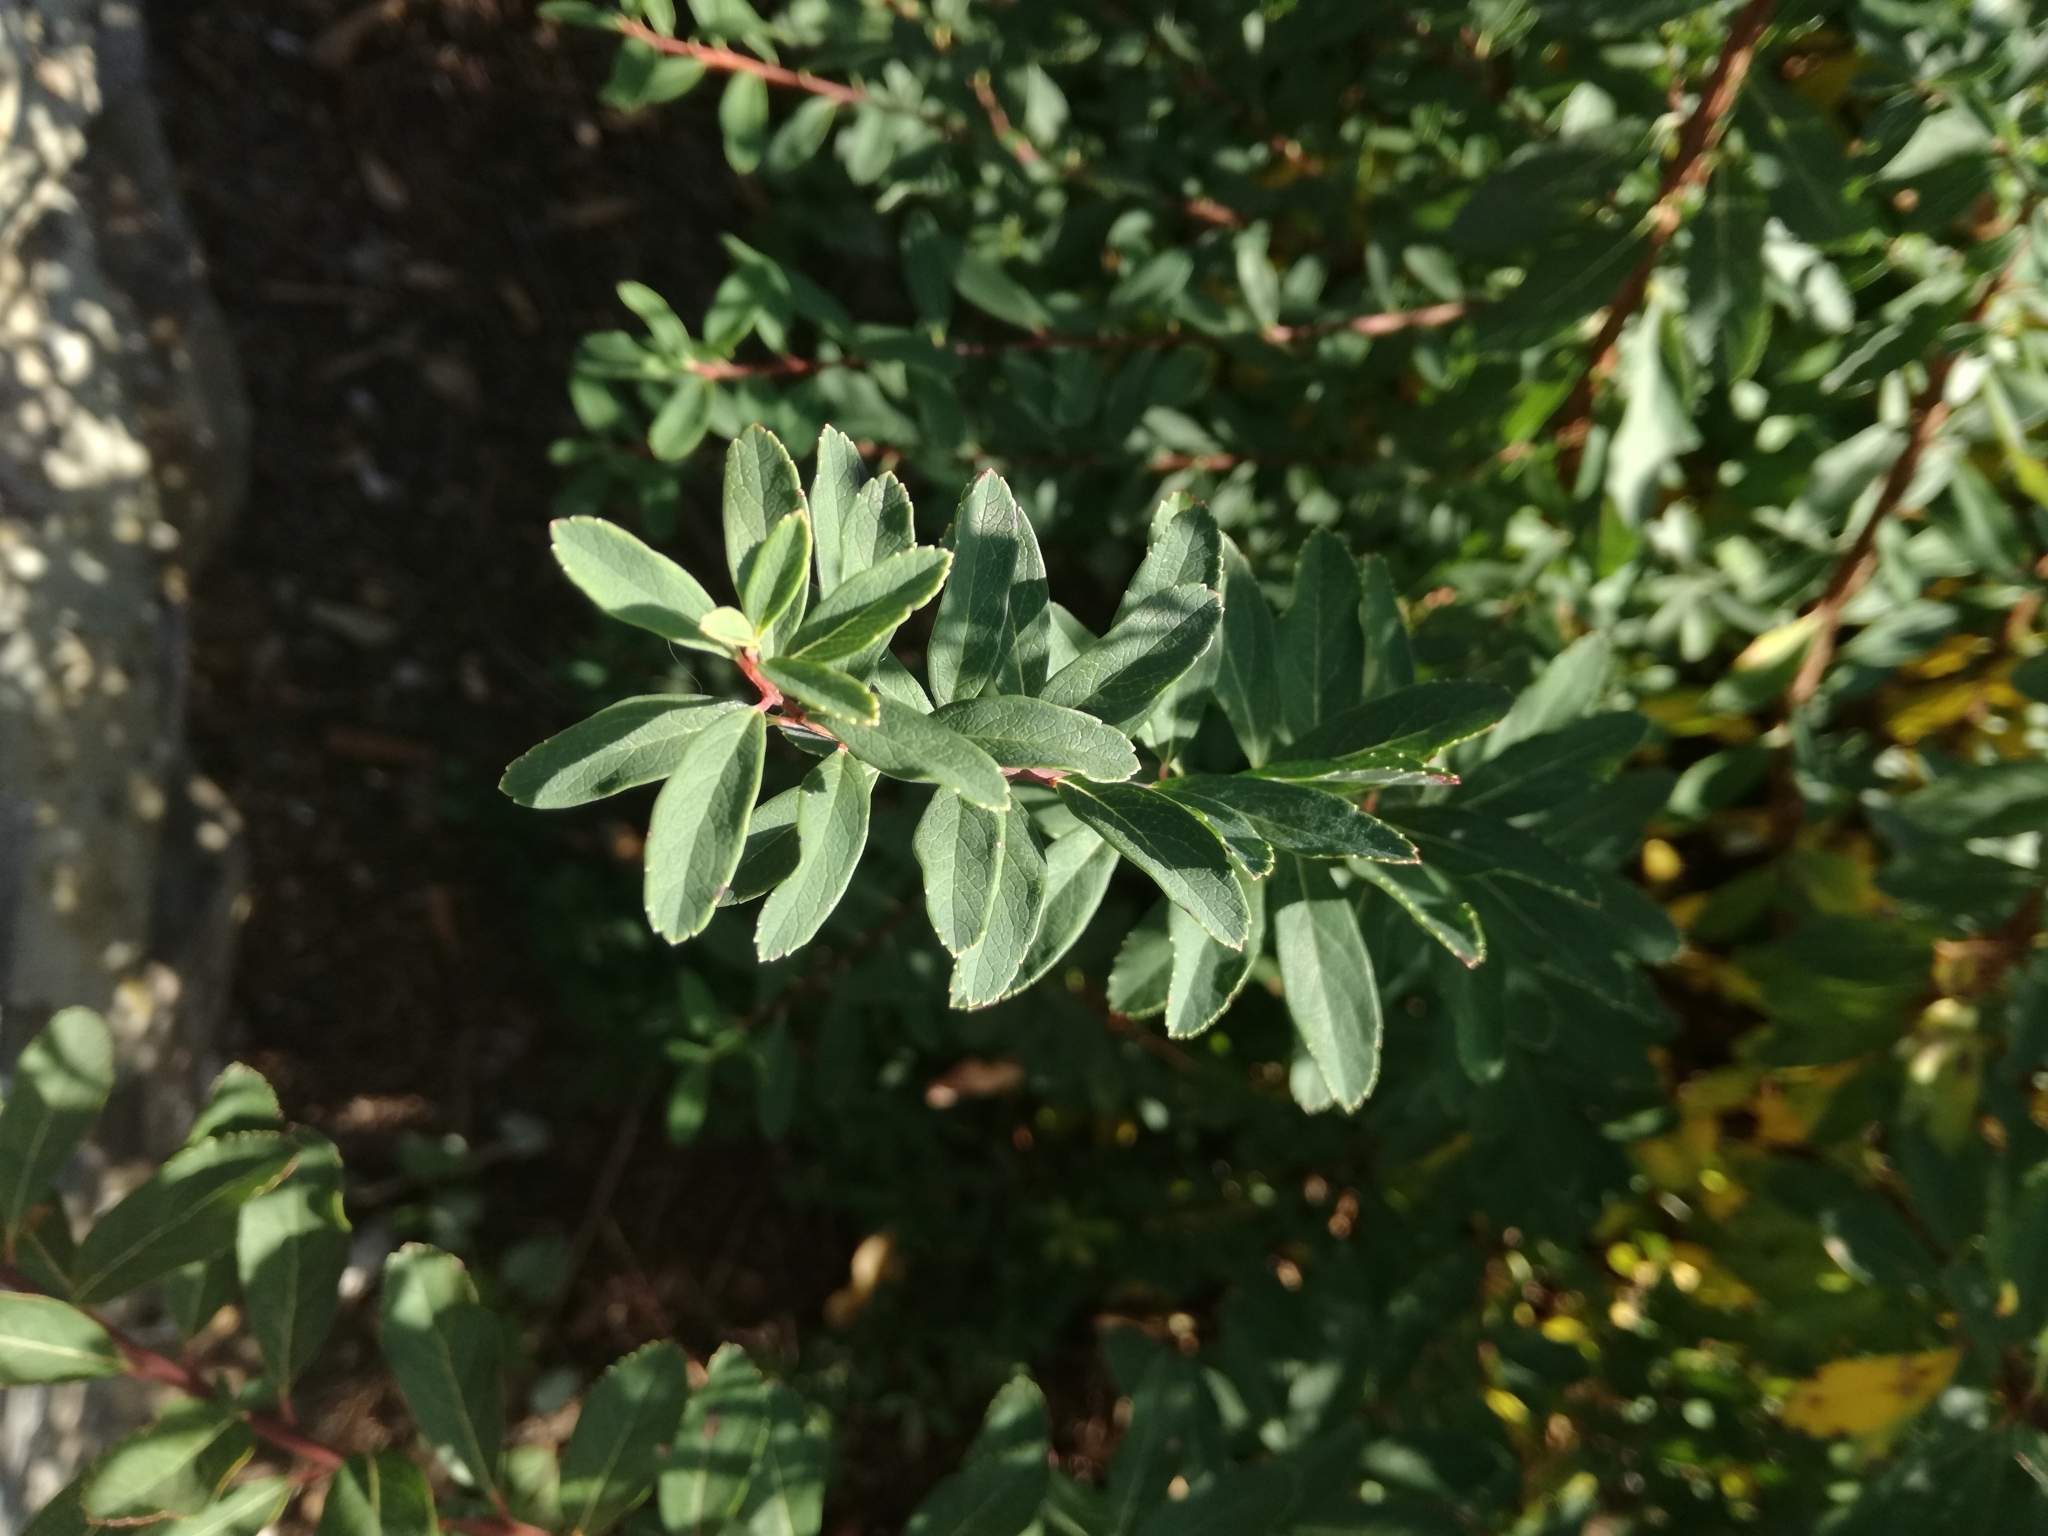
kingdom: Plantae
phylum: Tracheophyta
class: Magnoliopsida
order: Fagales
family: Myricaceae
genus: Myrica
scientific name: Myrica gale
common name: Sweet gale
